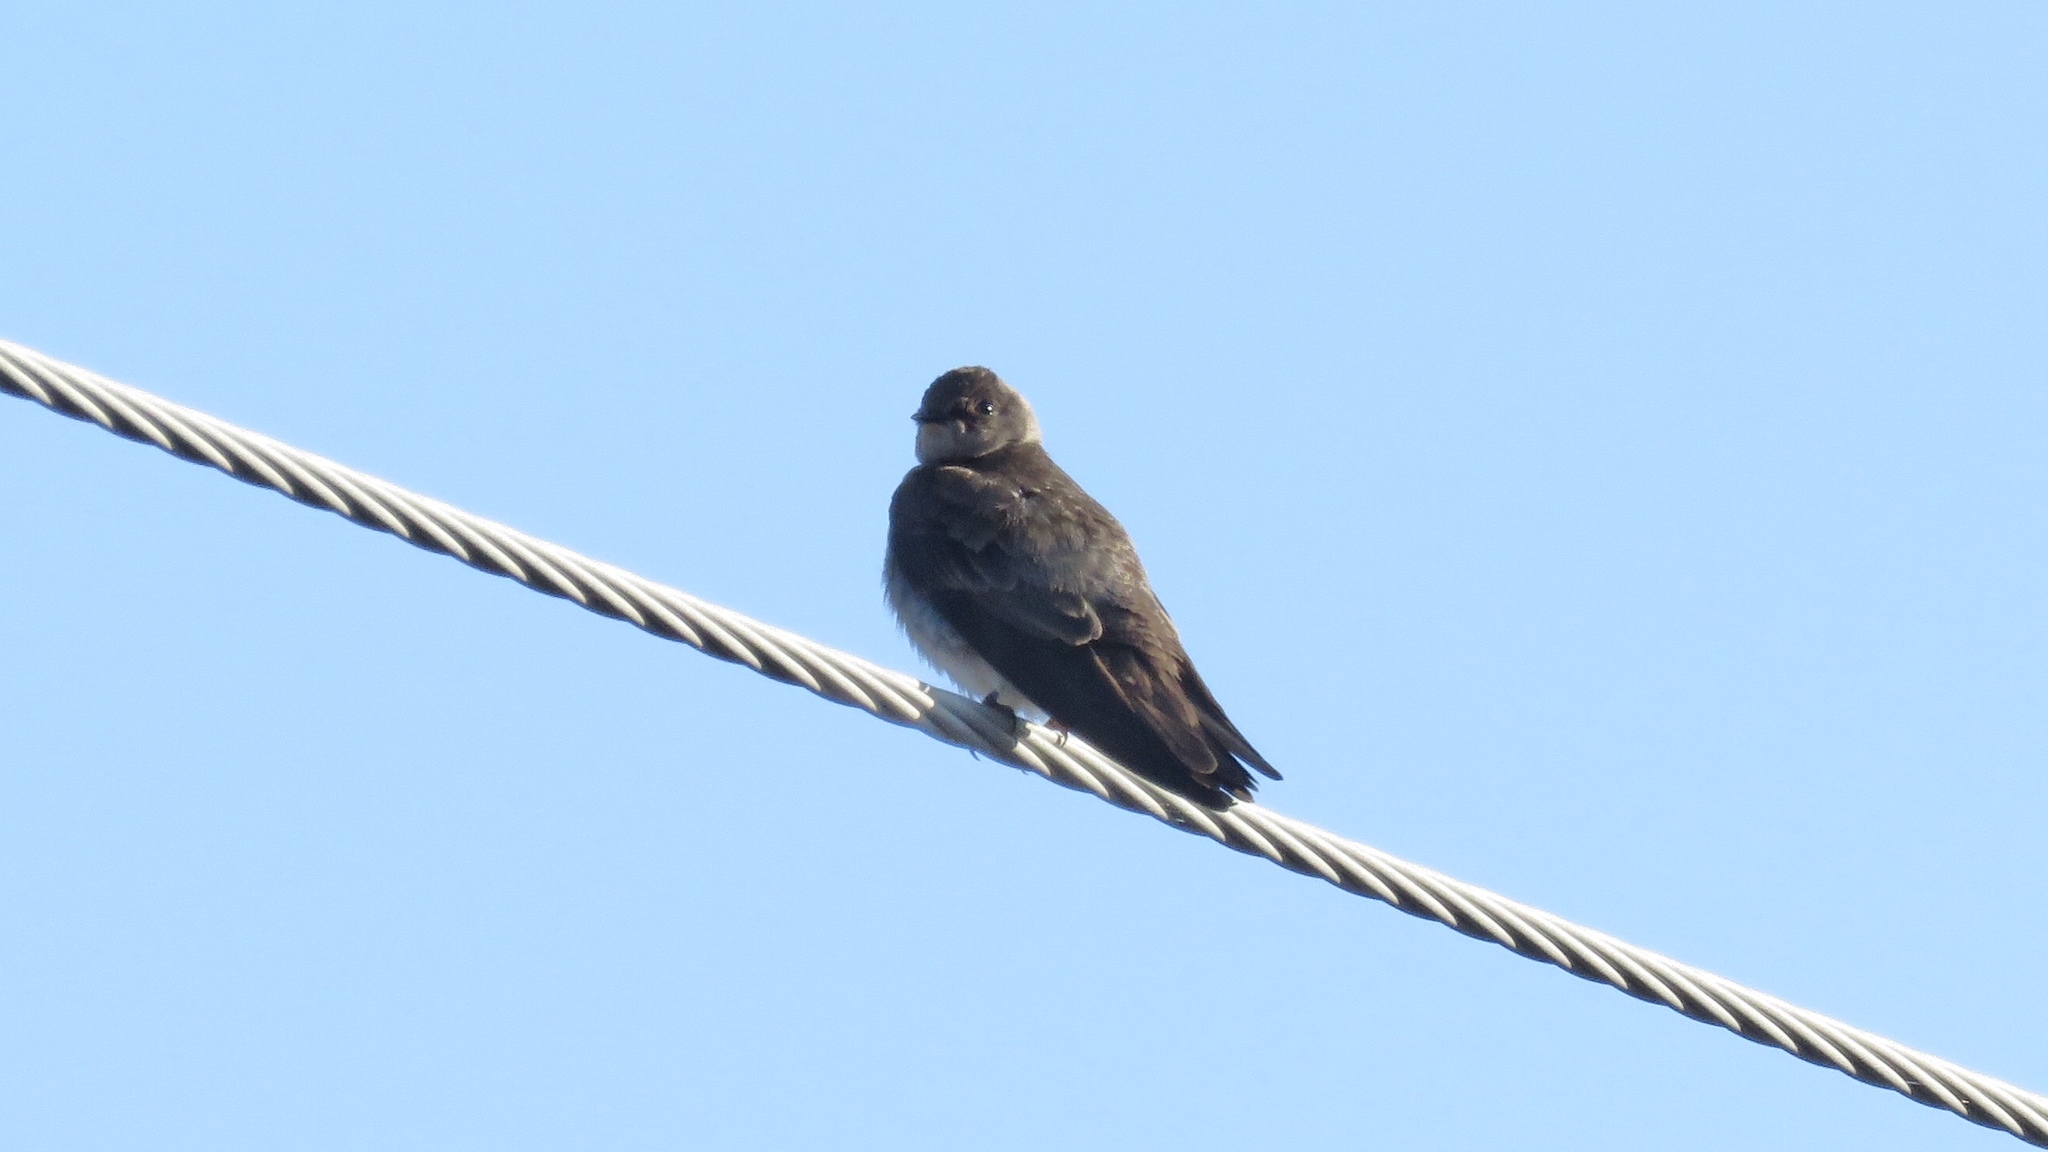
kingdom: Animalia
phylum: Chordata
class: Aves
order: Passeriformes
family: Hirundinidae
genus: Stelgidopteryx
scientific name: Stelgidopteryx serripennis
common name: Northern rough-winged swallow
